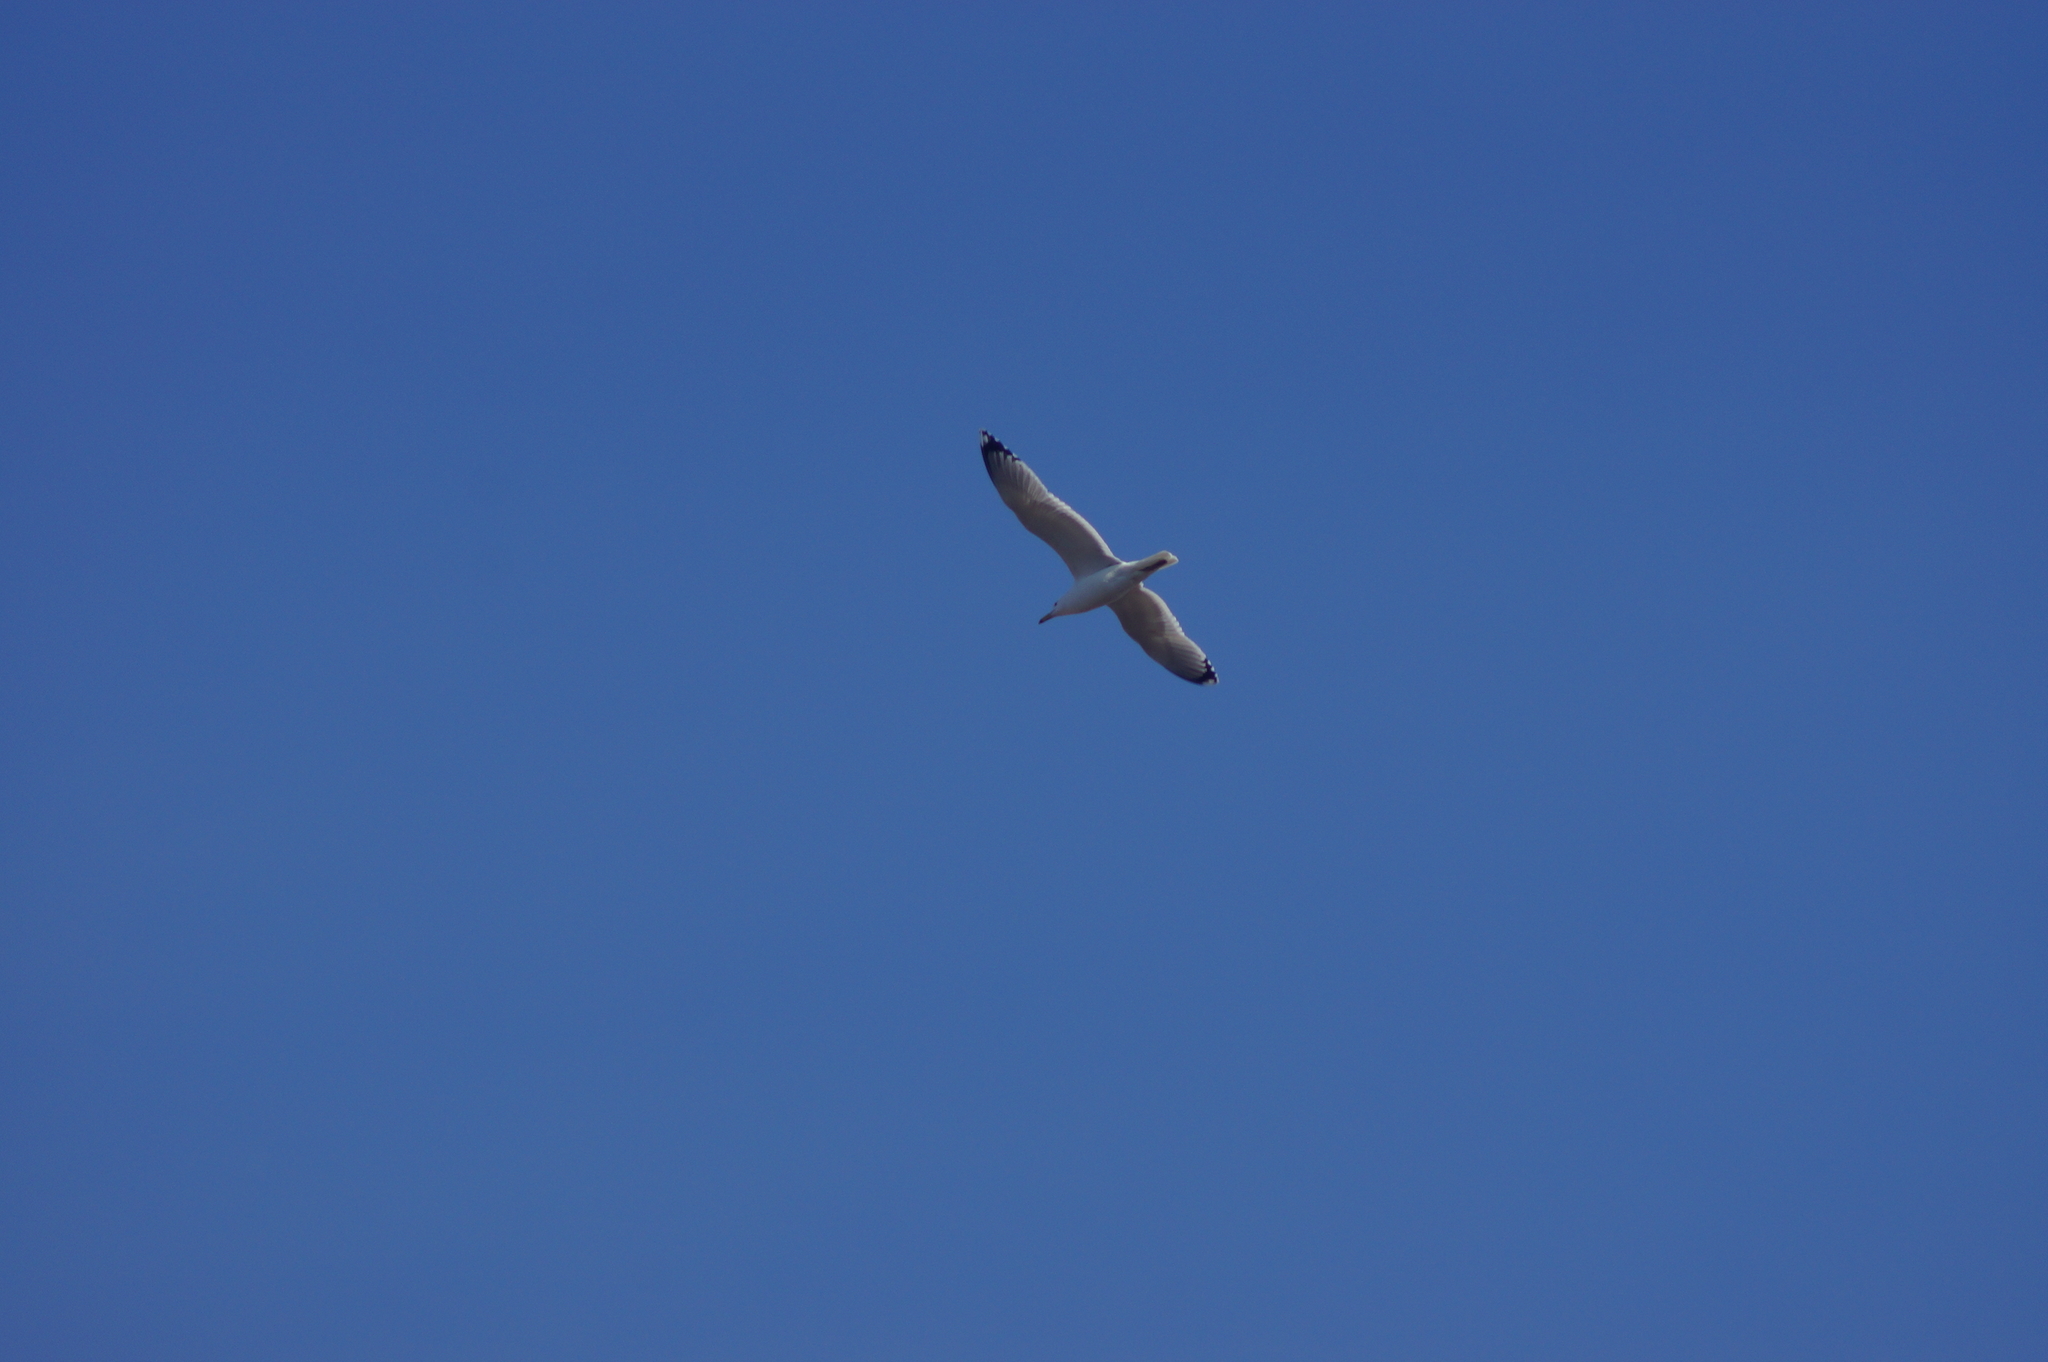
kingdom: Animalia
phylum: Chordata
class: Aves
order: Charadriiformes
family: Laridae
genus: Larus
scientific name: Larus cachinnans
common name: Caspian gull
